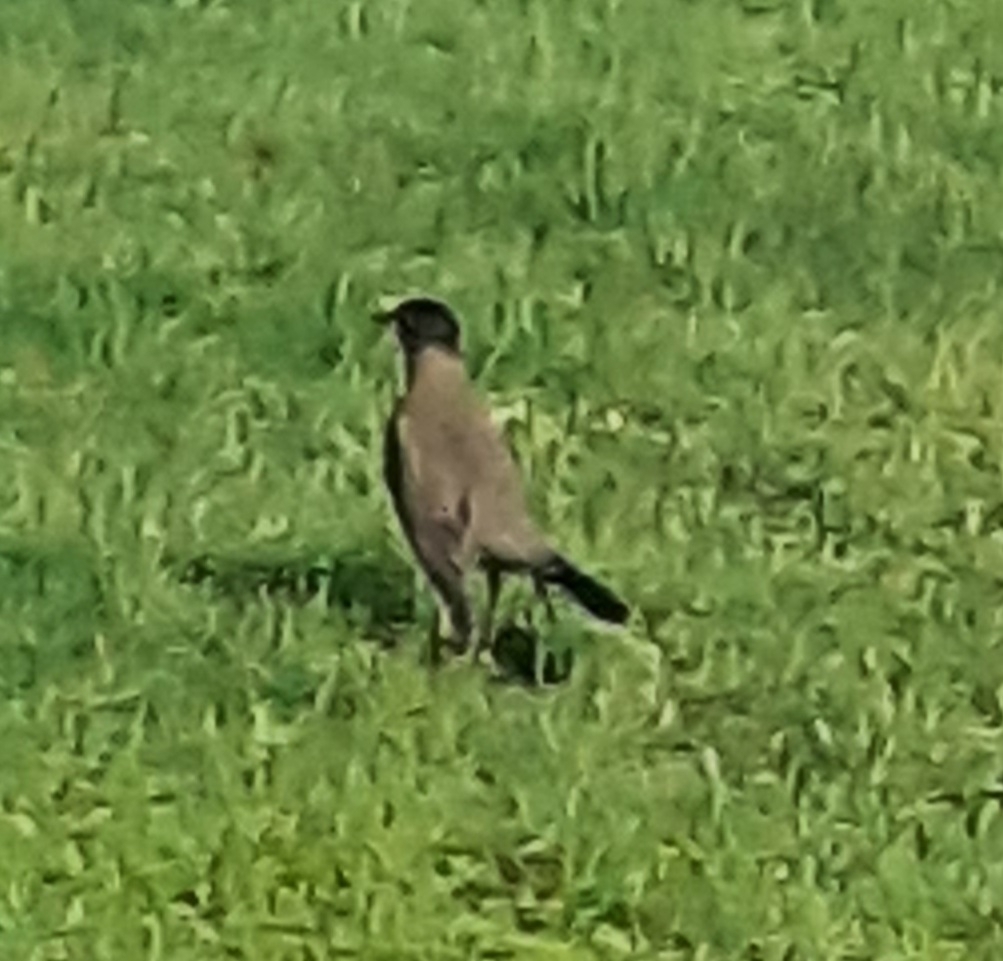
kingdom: Animalia
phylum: Chordata
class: Aves
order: Passeriformes
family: Turdidae
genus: Turdus
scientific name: Turdus falcklandii
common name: Austral thrush
